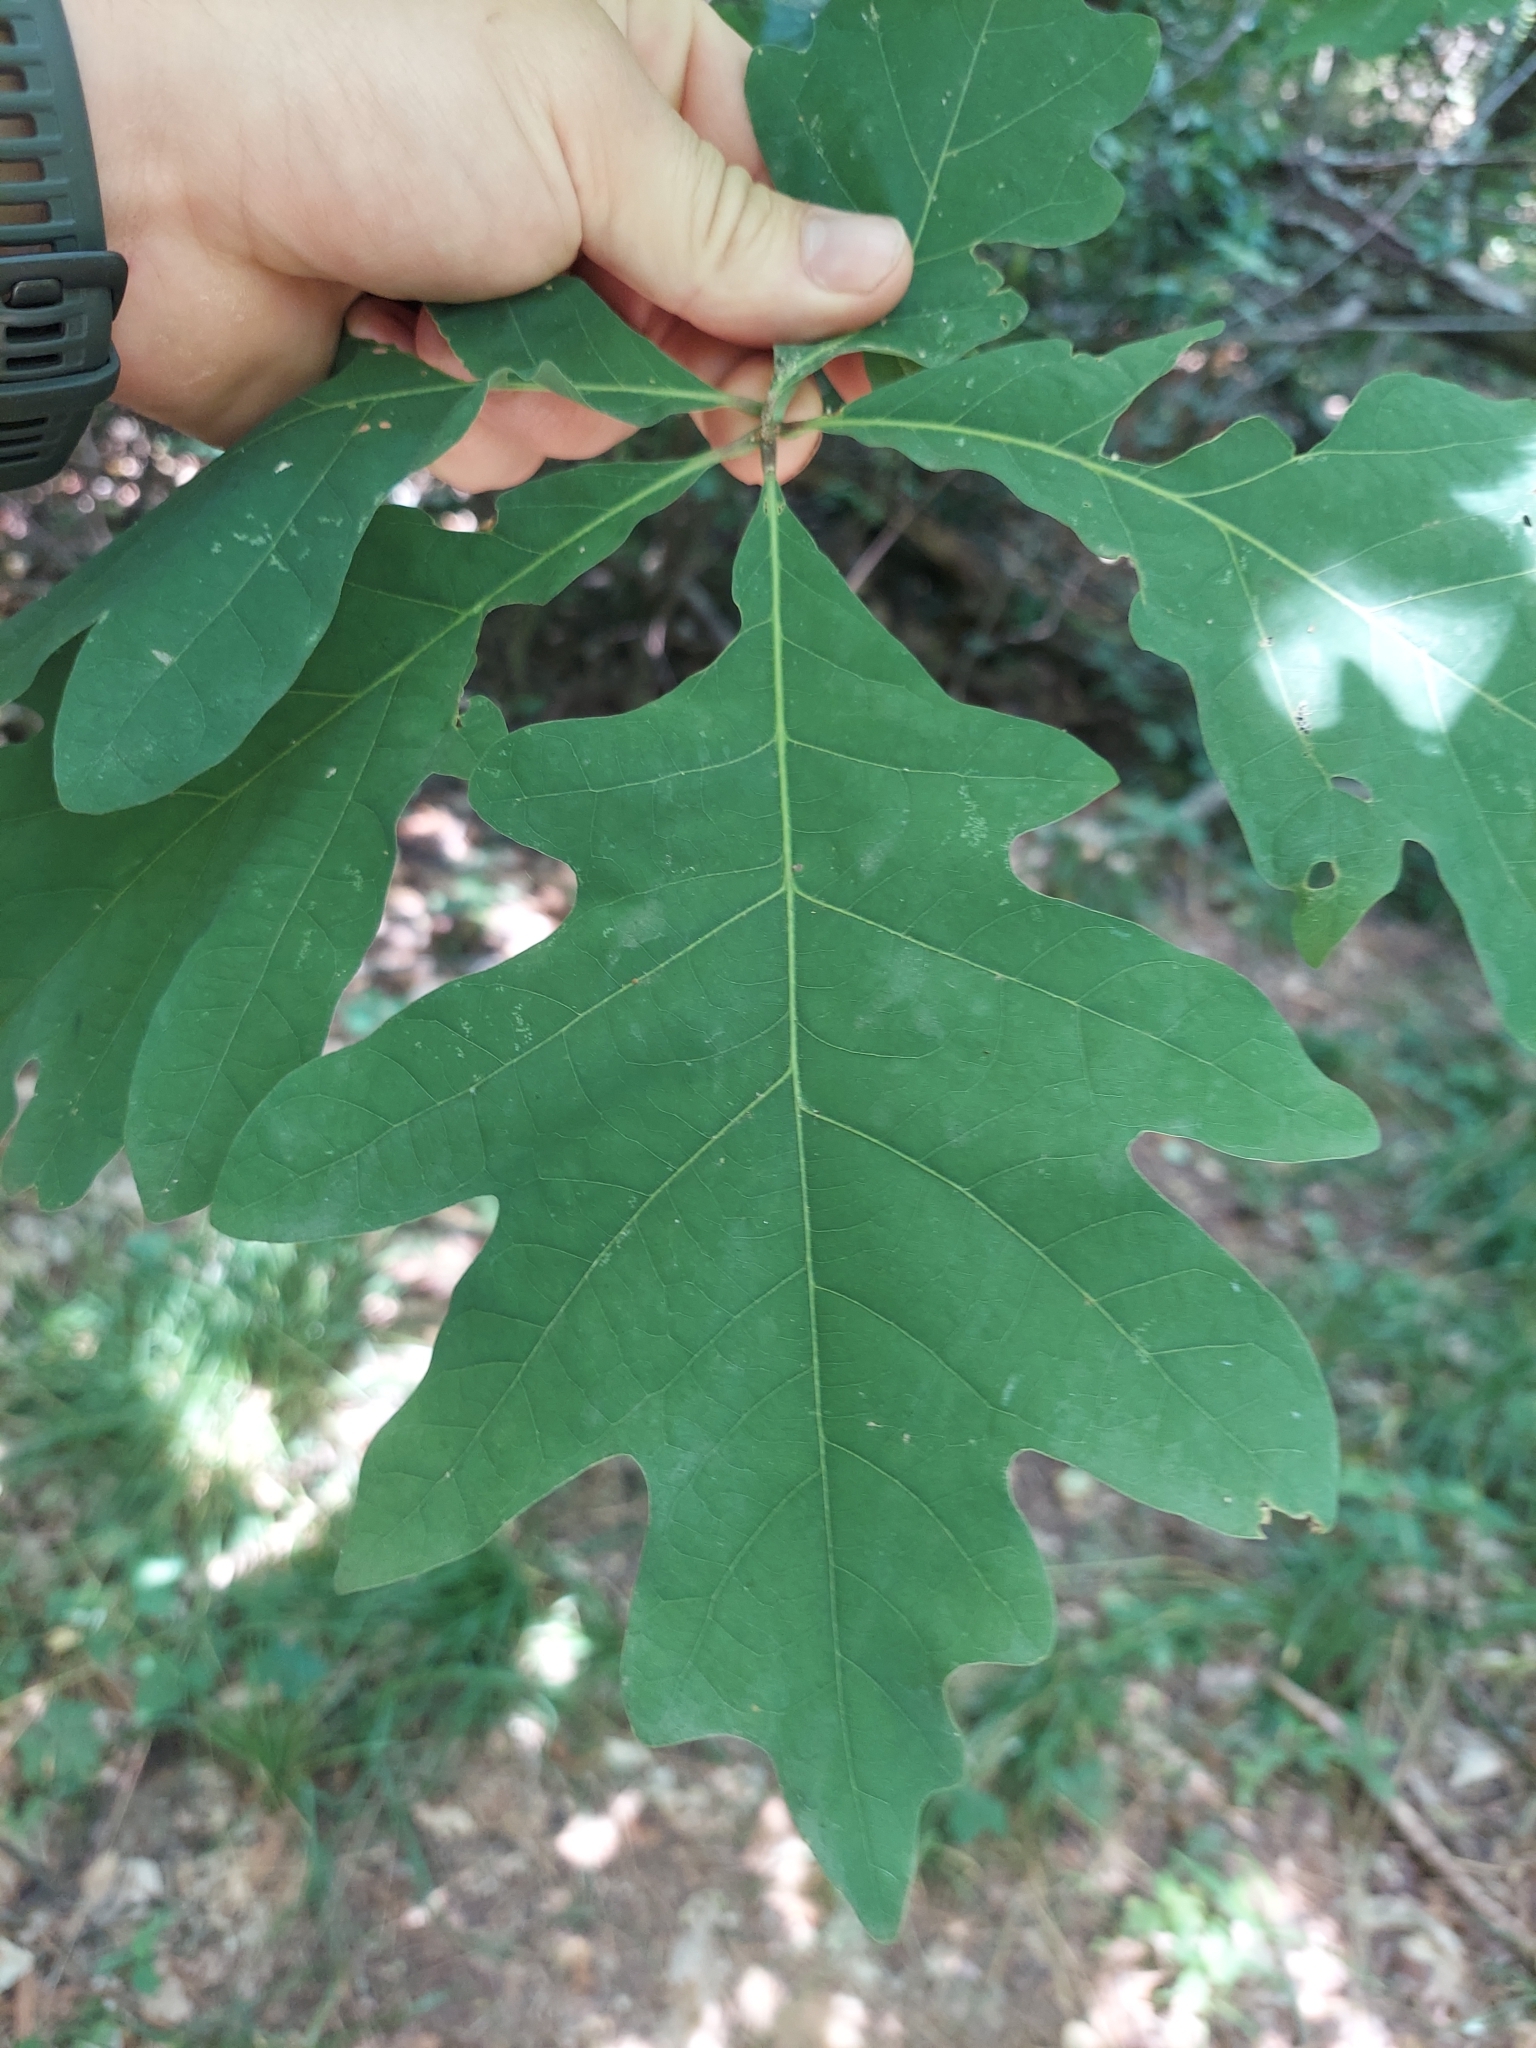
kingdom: Plantae
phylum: Tracheophyta
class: Magnoliopsida
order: Fagales
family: Fagaceae
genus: Quercus
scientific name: Quercus alba
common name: White oak
